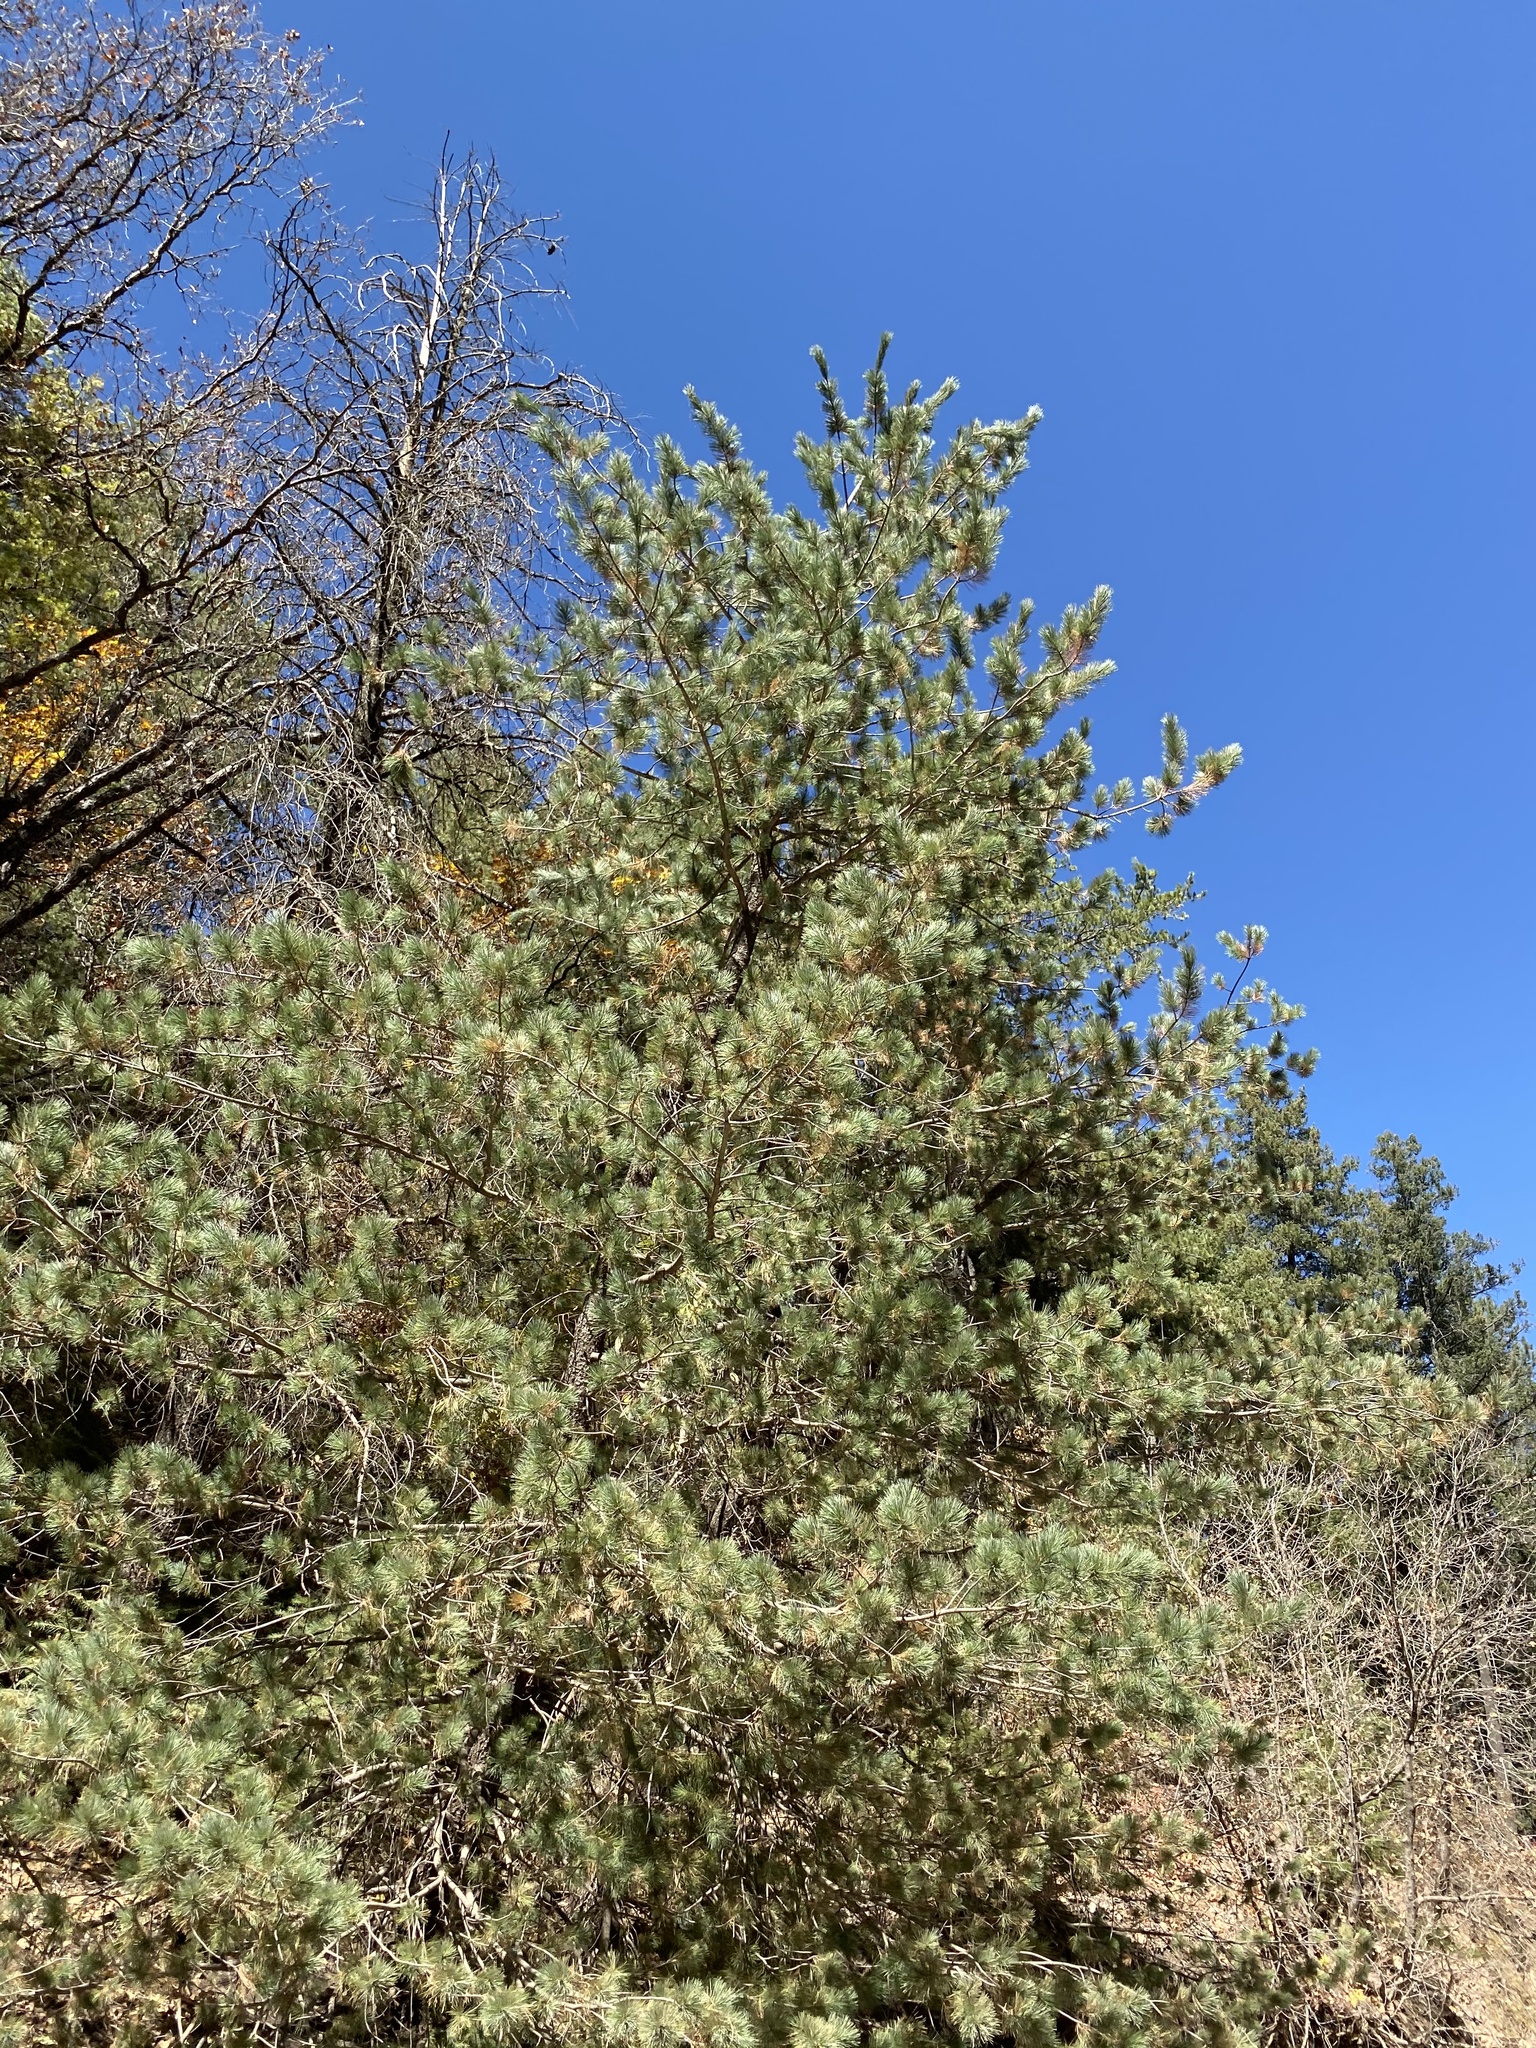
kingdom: Plantae
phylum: Tracheophyta
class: Pinopsida
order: Pinales
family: Pinaceae
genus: Pinus
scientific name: Pinus strobiformis
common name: Southwestern white pine
